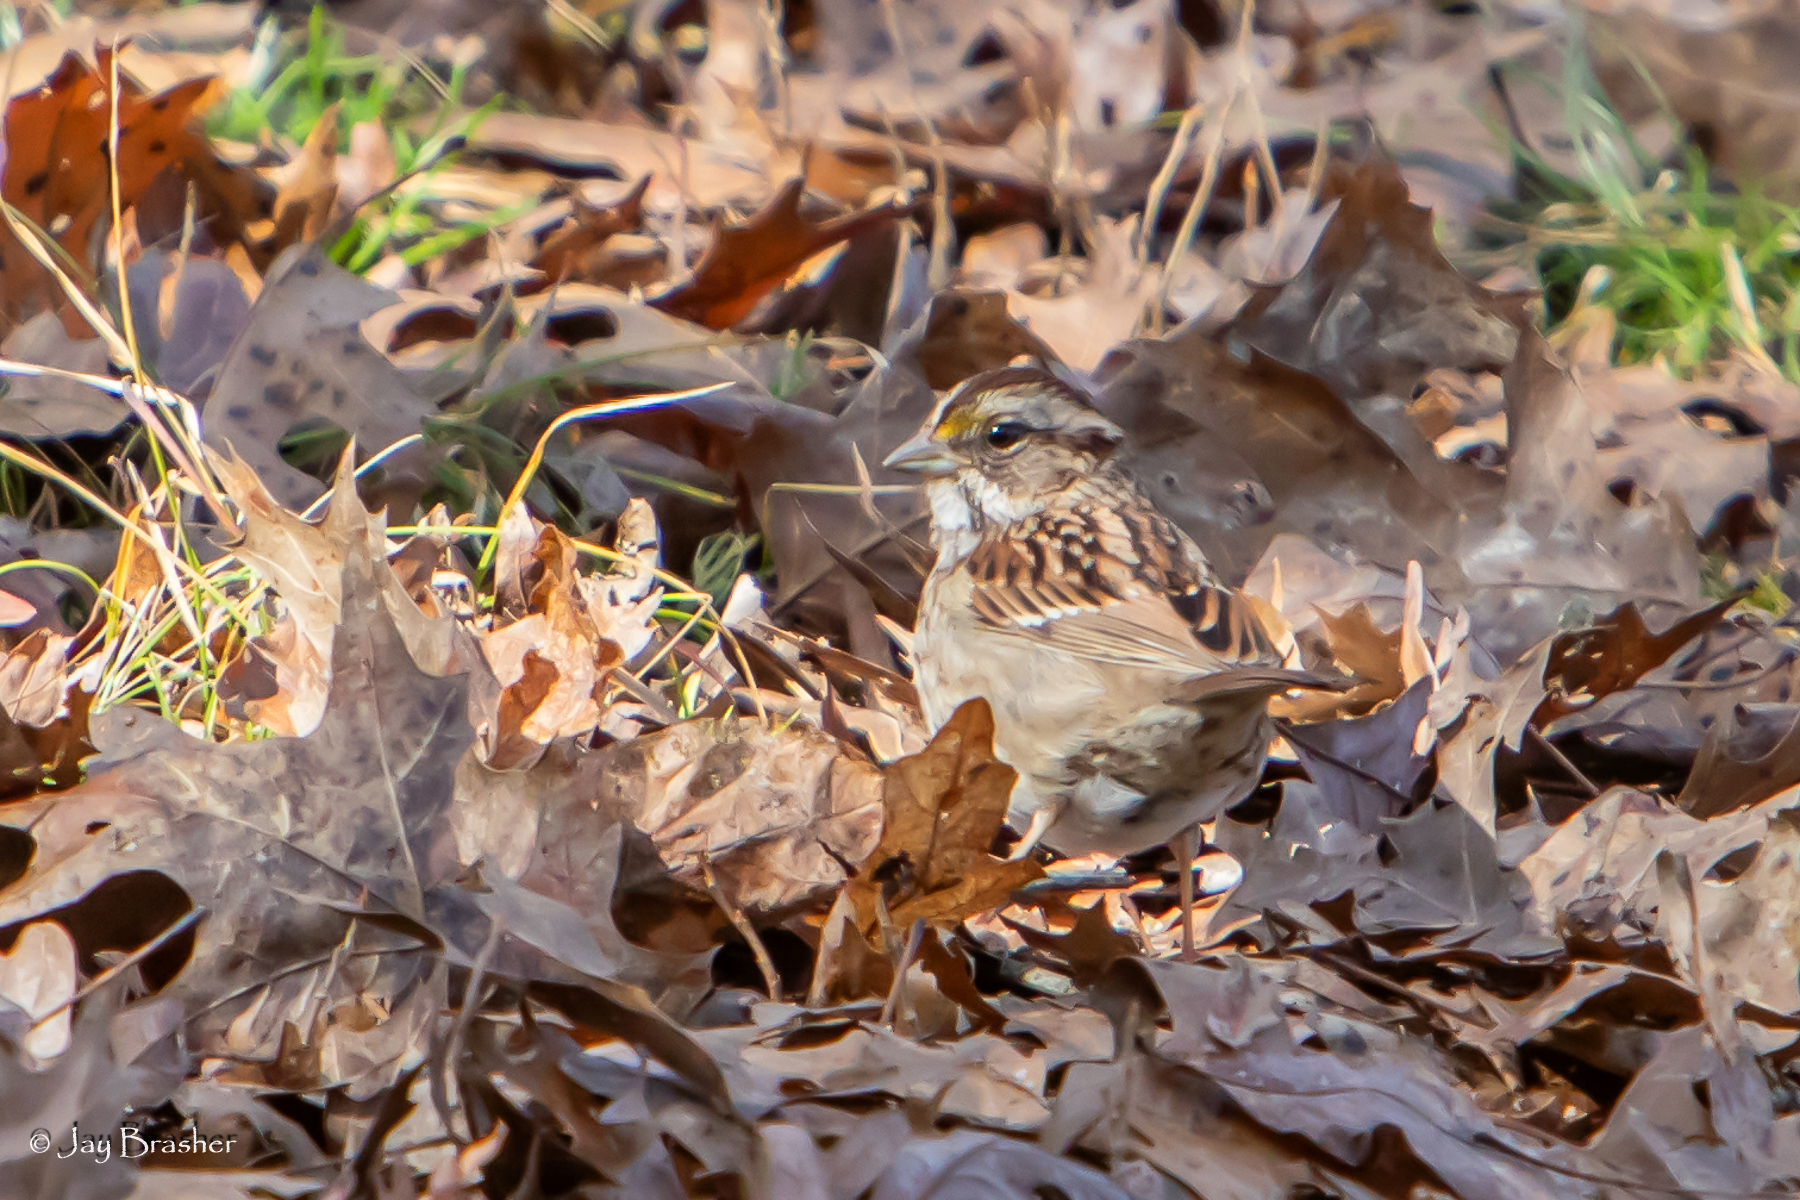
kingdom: Animalia
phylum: Chordata
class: Aves
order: Passeriformes
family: Passerellidae
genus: Zonotrichia
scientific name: Zonotrichia albicollis
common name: White-throated sparrow
